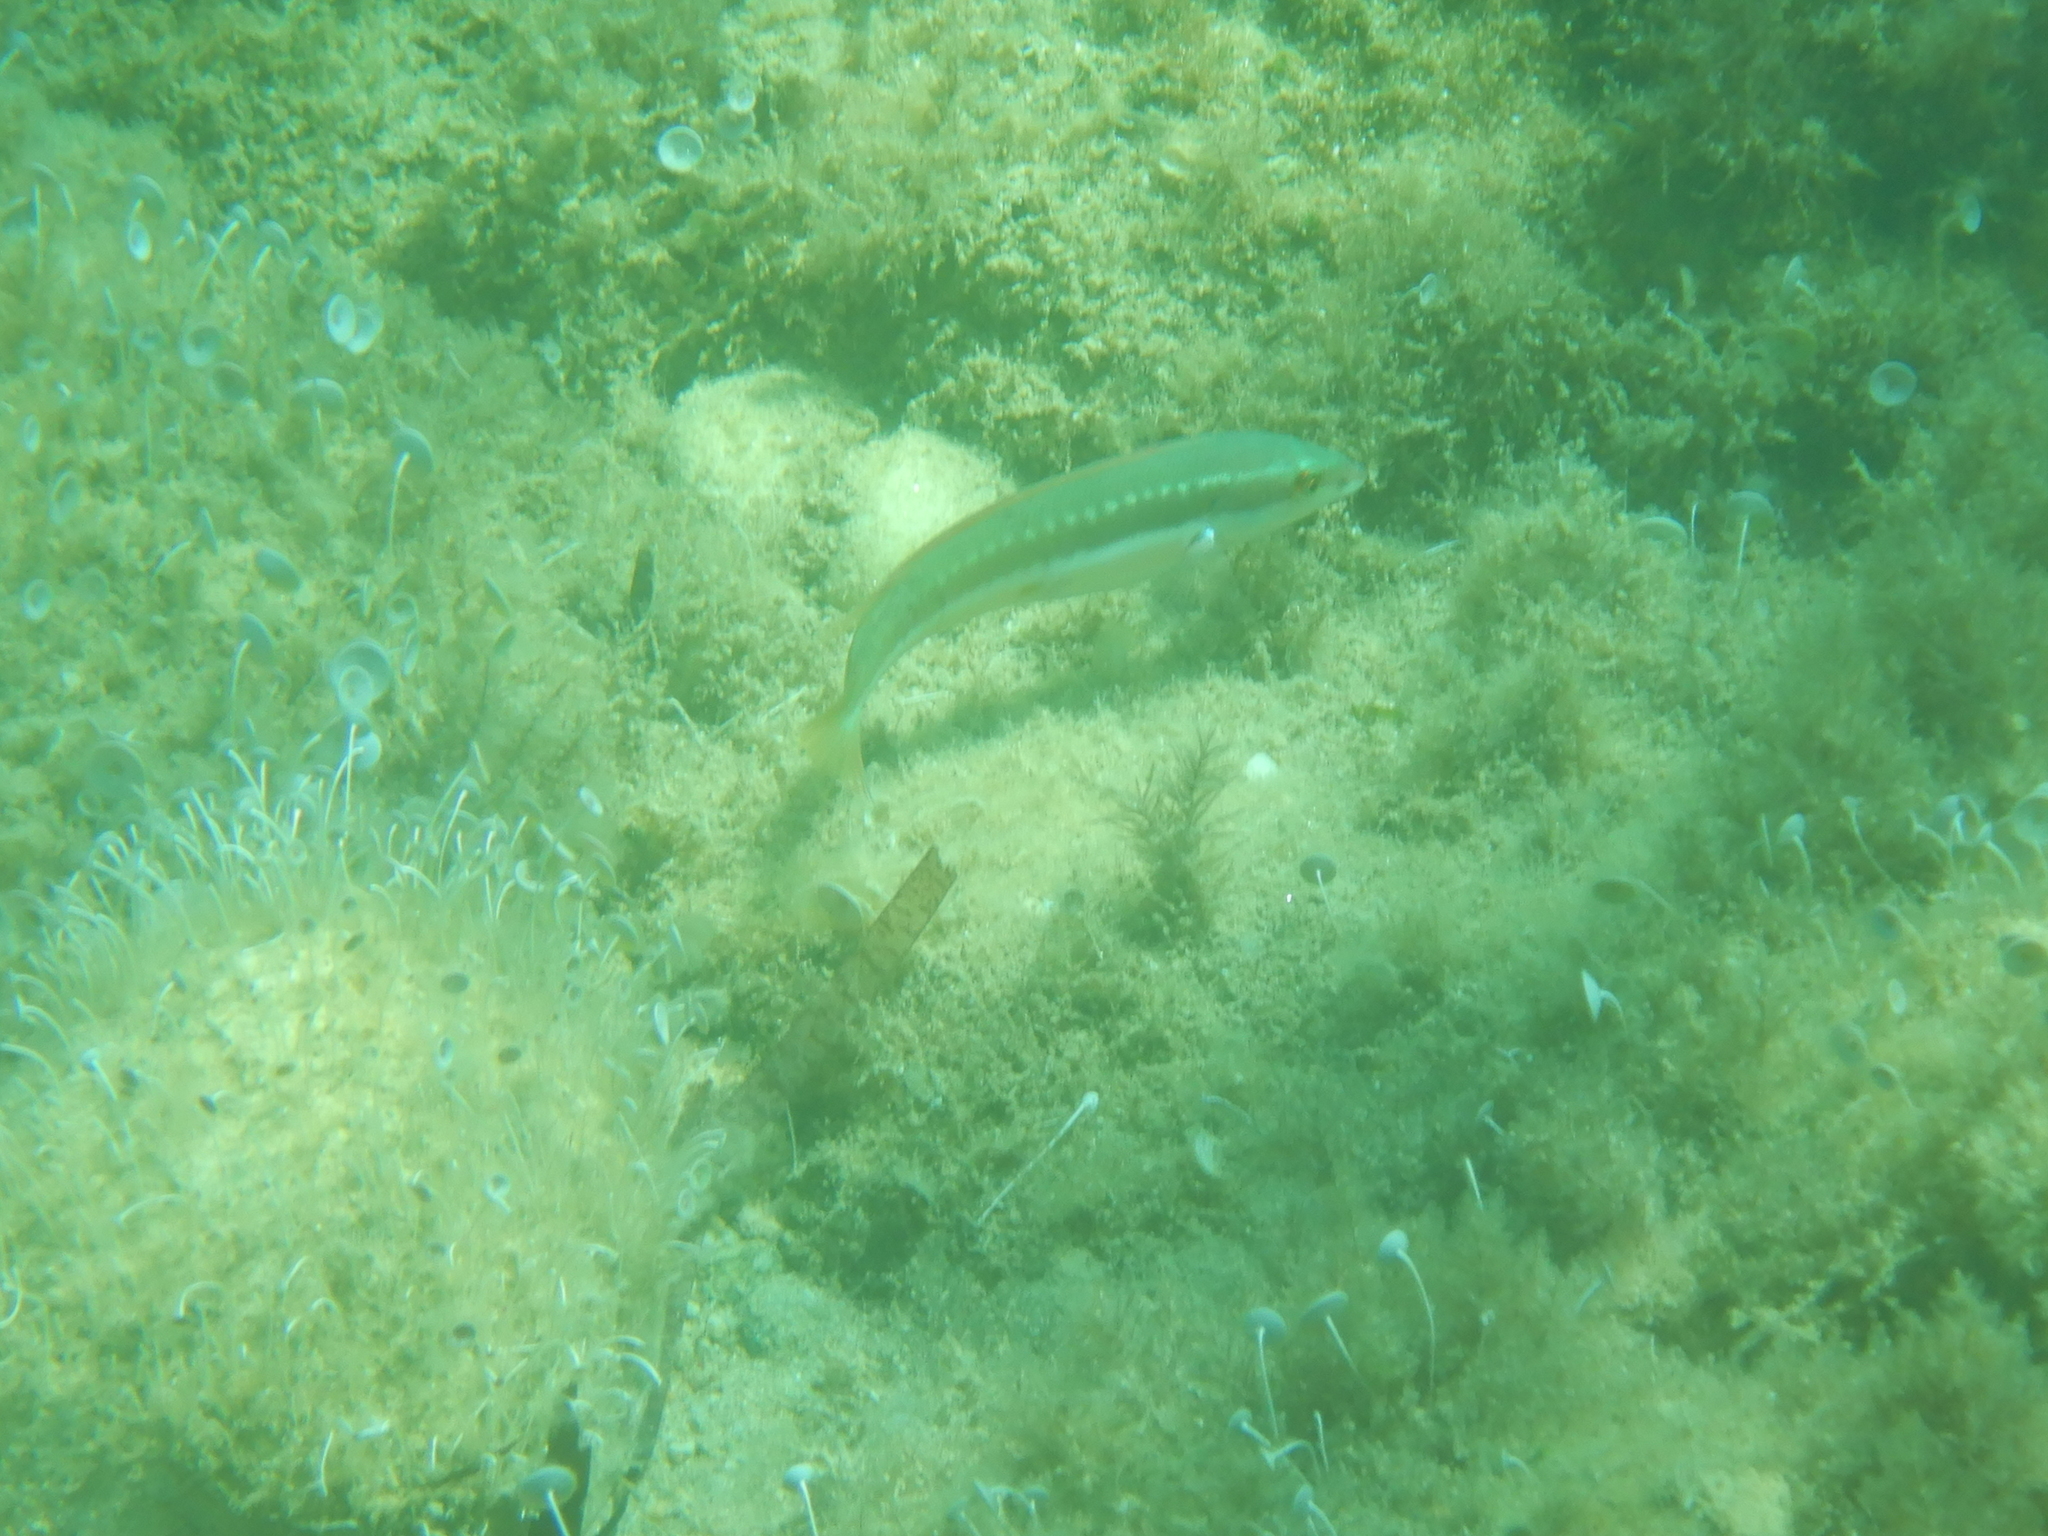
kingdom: Animalia
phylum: Chordata
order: Perciformes
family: Labridae
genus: Coris
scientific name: Coris julis
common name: Rainbow wrasse
